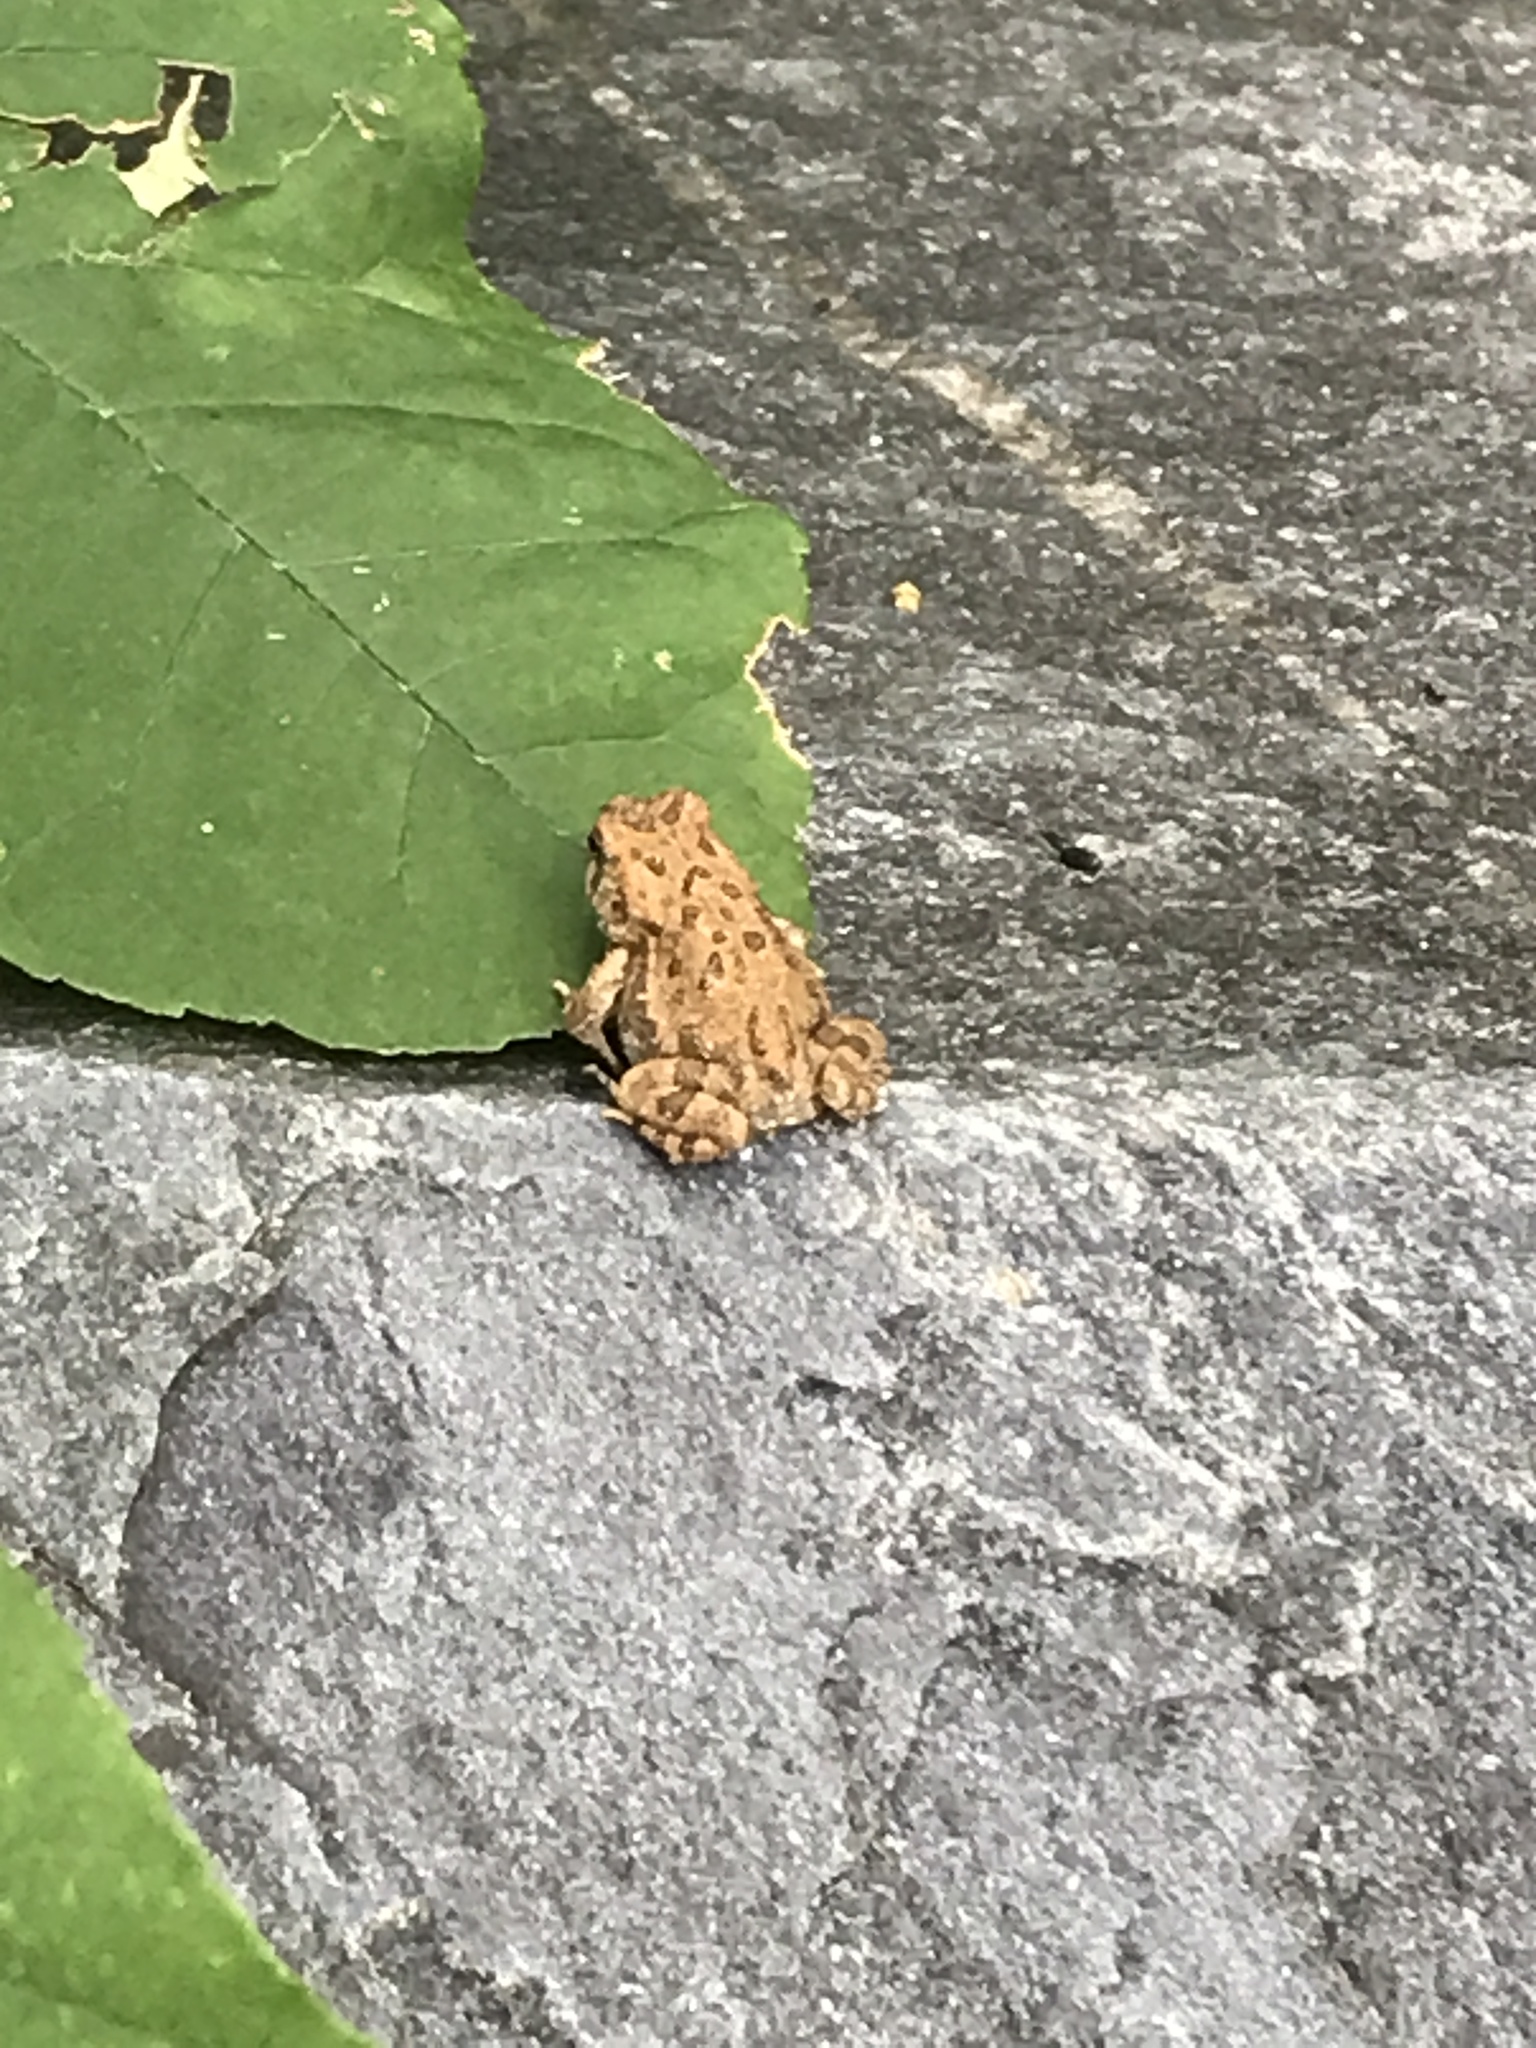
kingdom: Animalia
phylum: Chordata
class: Amphibia
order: Anura
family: Bufonidae
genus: Anaxyrus
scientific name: Anaxyrus americanus
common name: American toad
